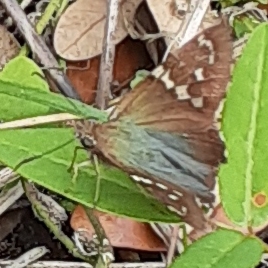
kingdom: Animalia
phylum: Arthropoda
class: Insecta
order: Lepidoptera
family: Hesperiidae
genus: Urbanus
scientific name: Urbanus proteus
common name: Long-tailed skipper
